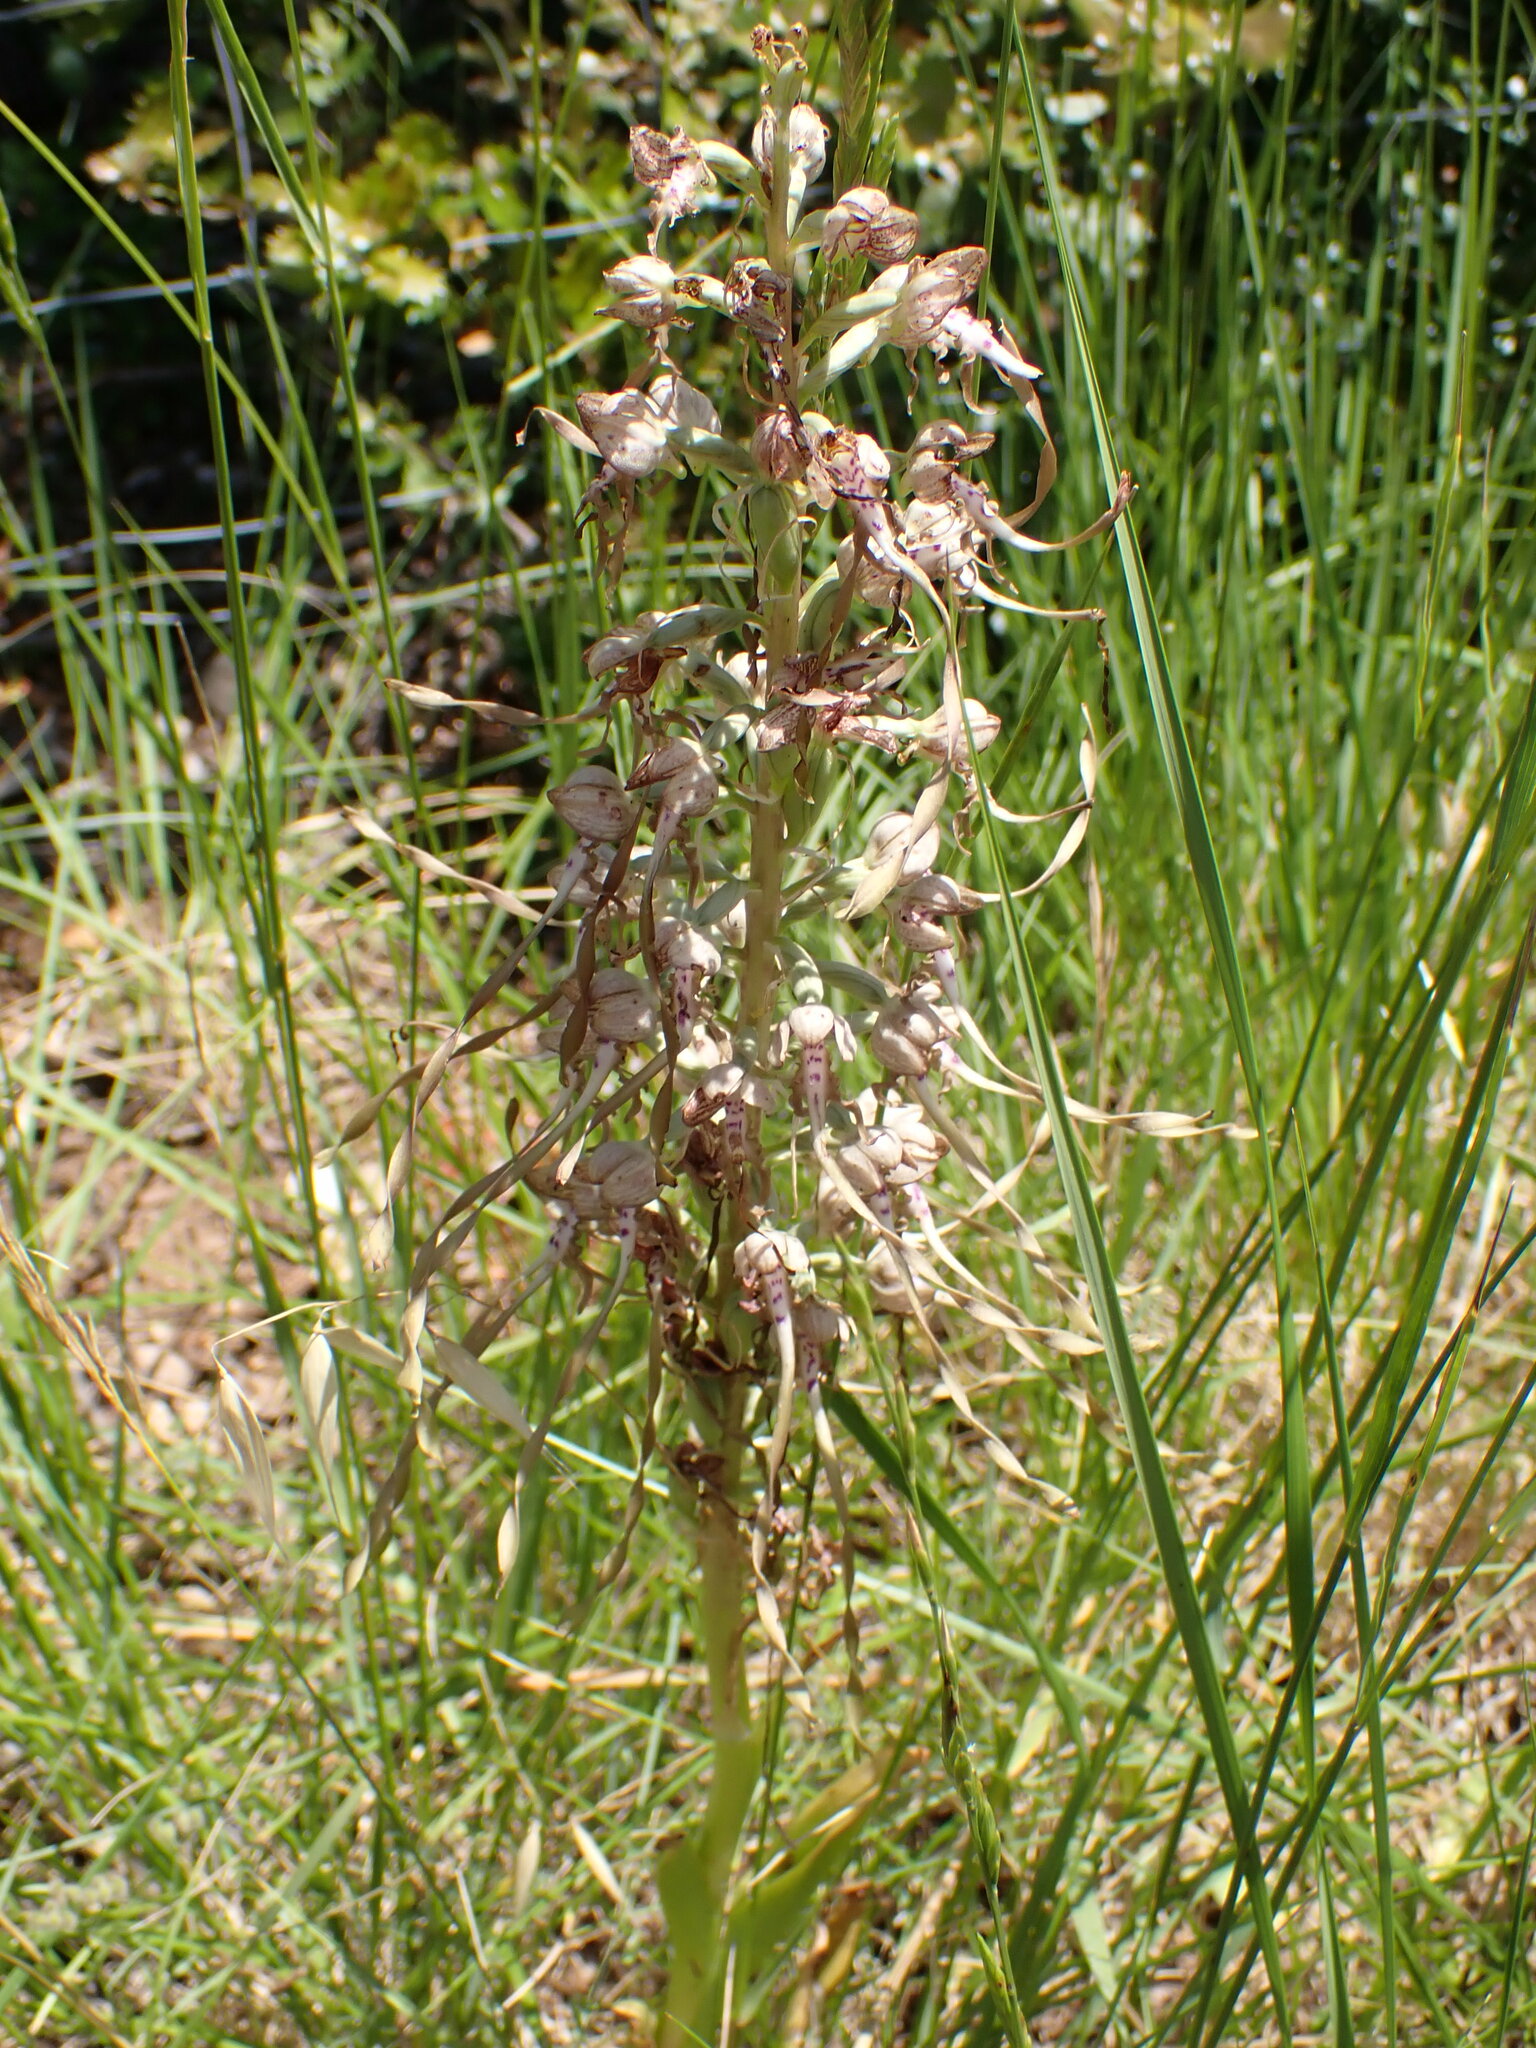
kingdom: Plantae
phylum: Tracheophyta
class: Liliopsida
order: Asparagales
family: Orchidaceae
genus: Himantoglossum
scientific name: Himantoglossum hircinum
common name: Lizard orchid
